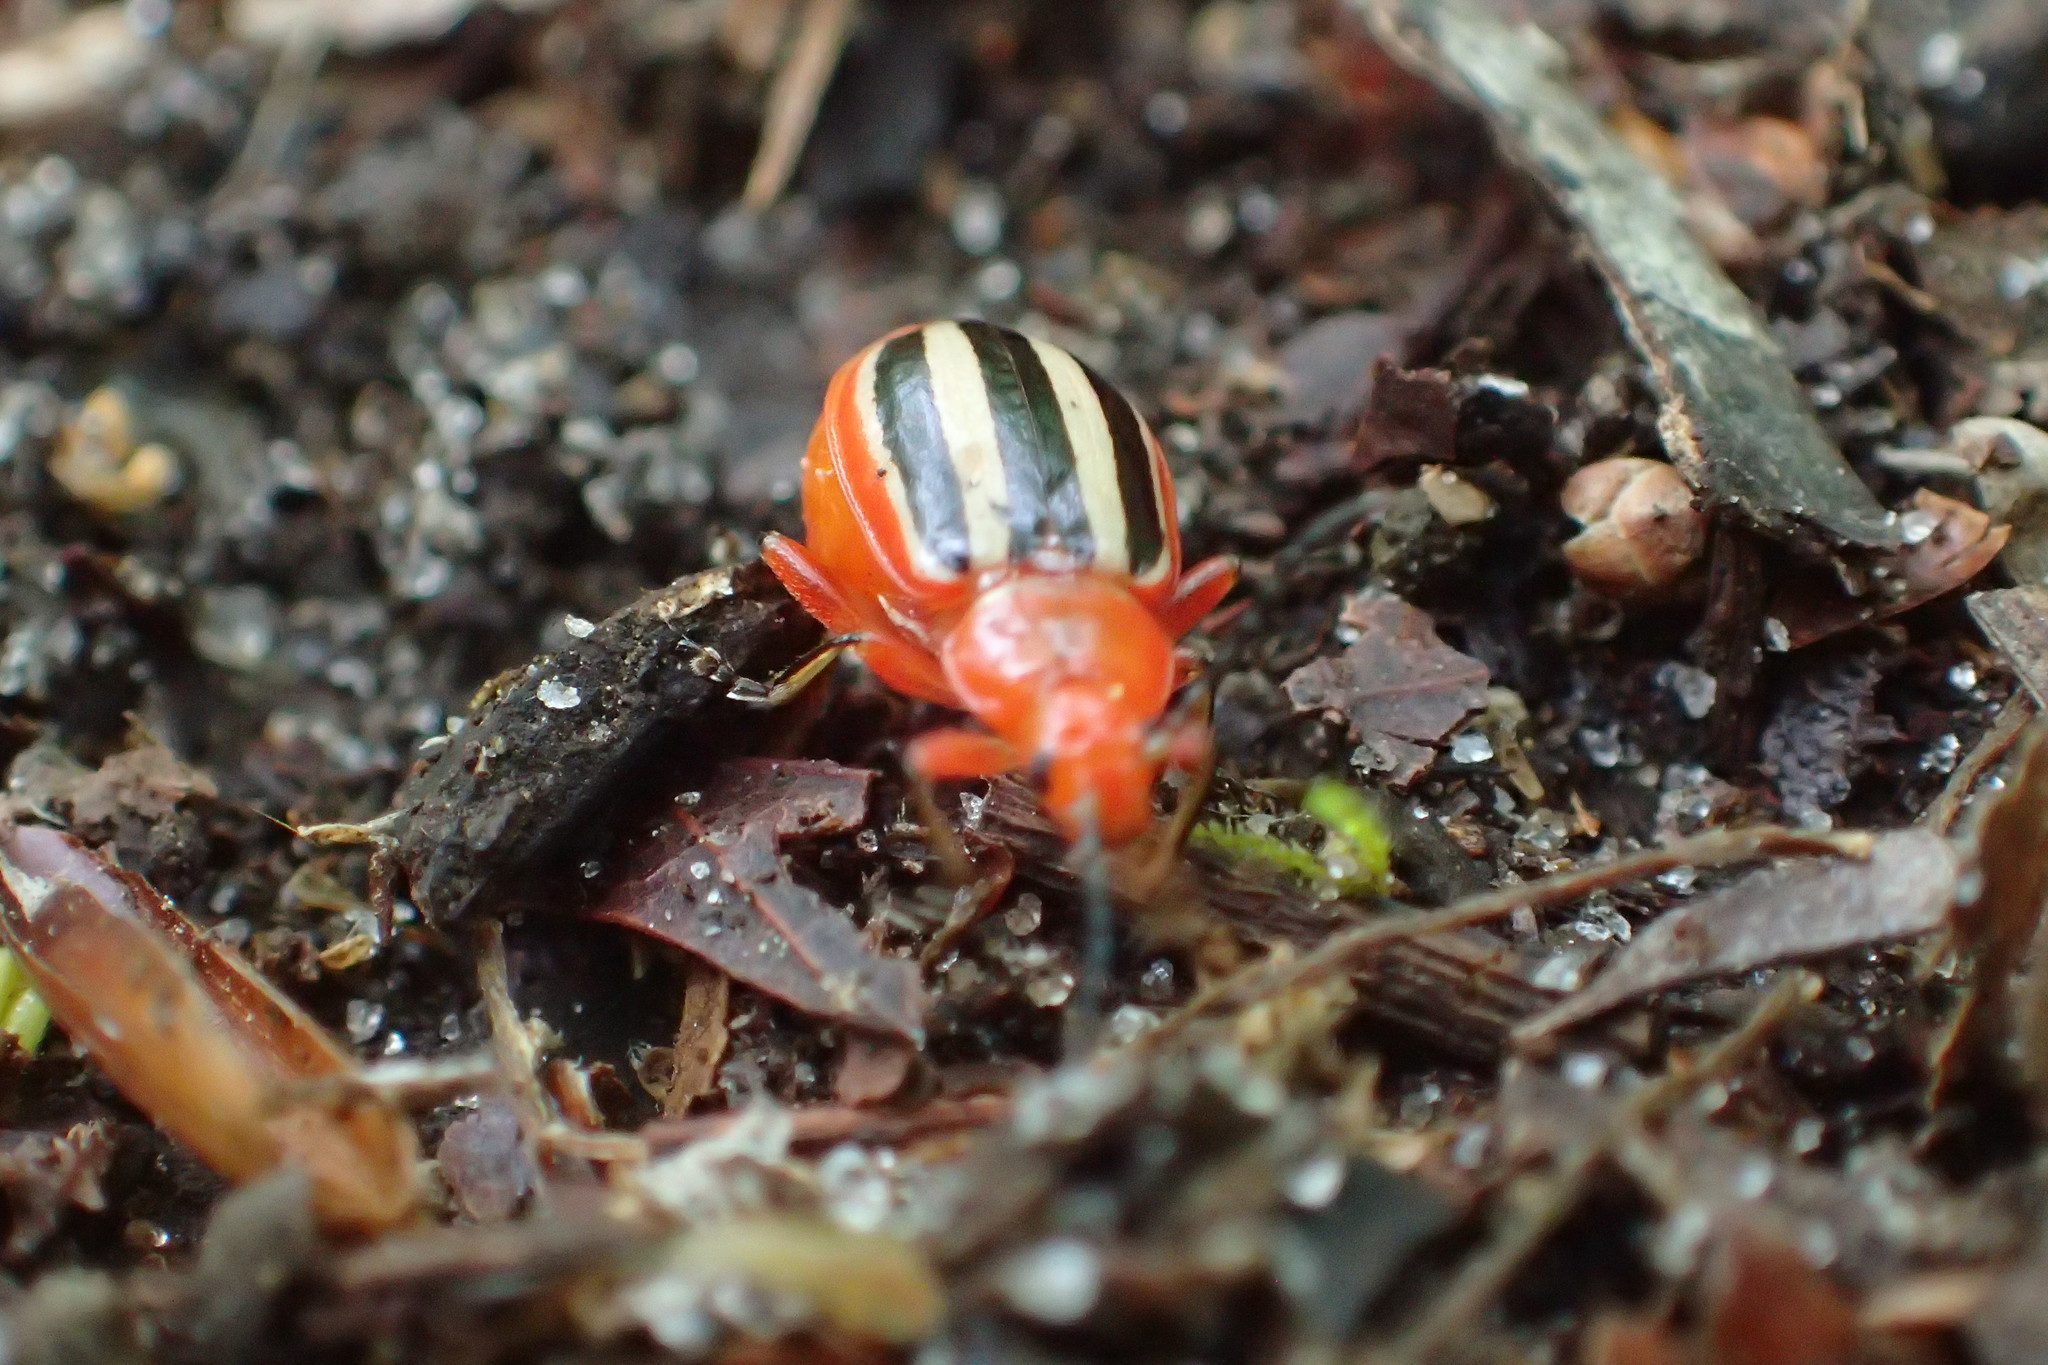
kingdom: Animalia
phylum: Arthropoda
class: Insecta
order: Coleoptera
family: Chrysomelidae
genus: Disonycha
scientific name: Disonycha discoidea
